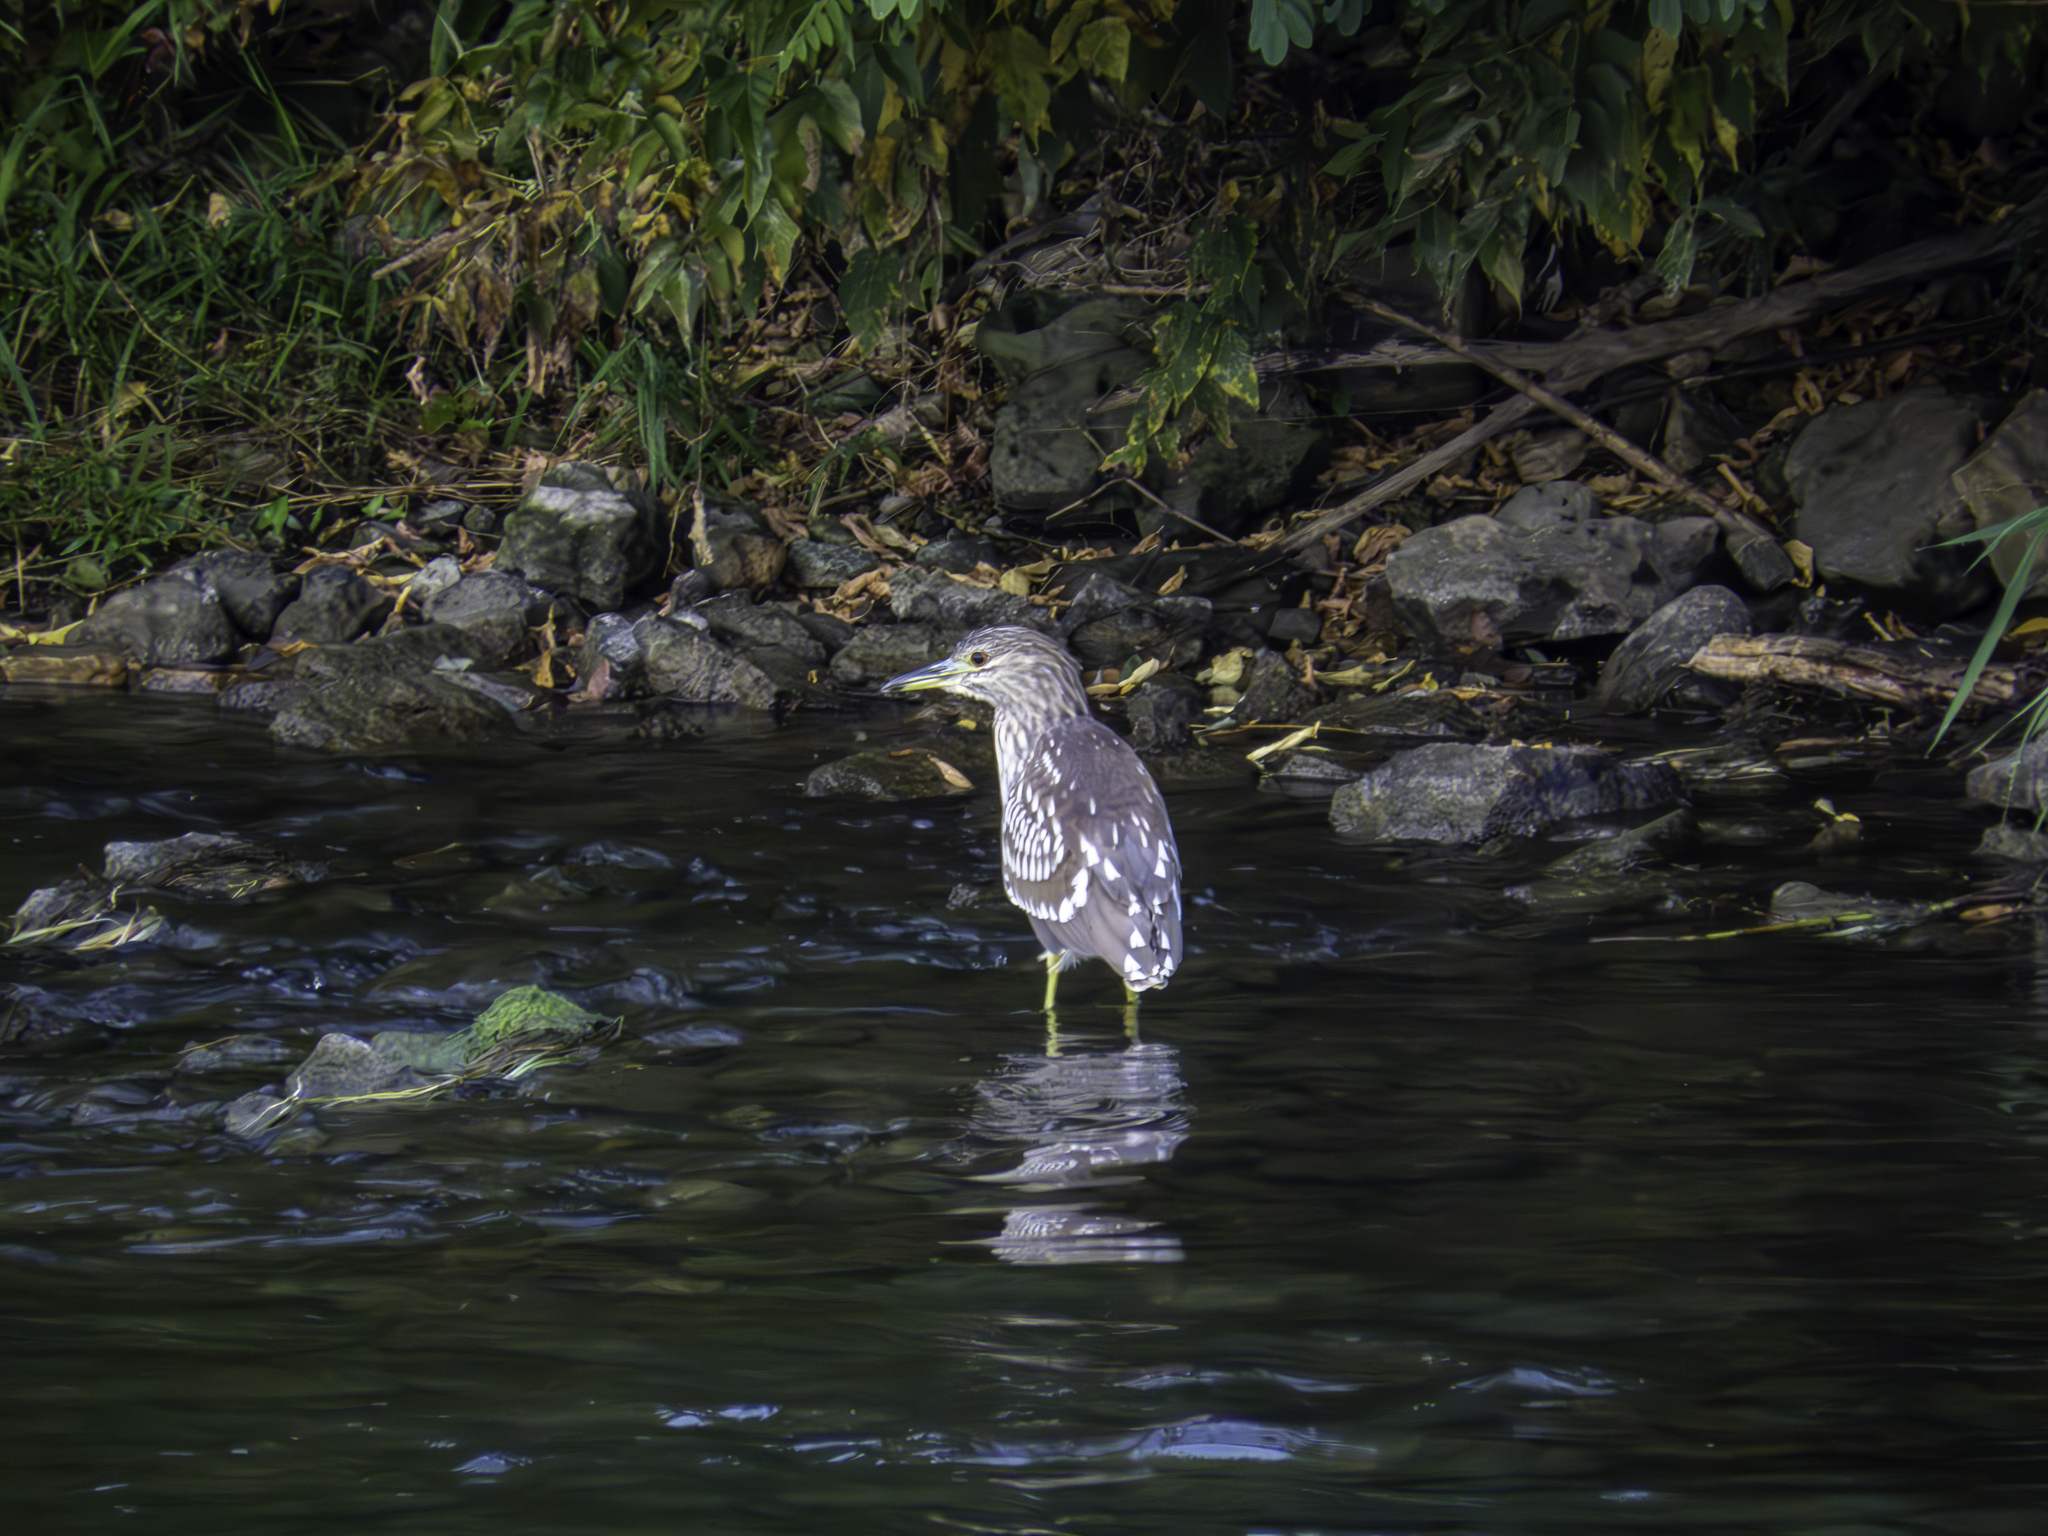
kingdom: Animalia
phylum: Chordata
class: Aves
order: Pelecaniformes
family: Ardeidae
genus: Nycticorax
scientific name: Nycticorax nycticorax
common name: Black-crowned night heron
